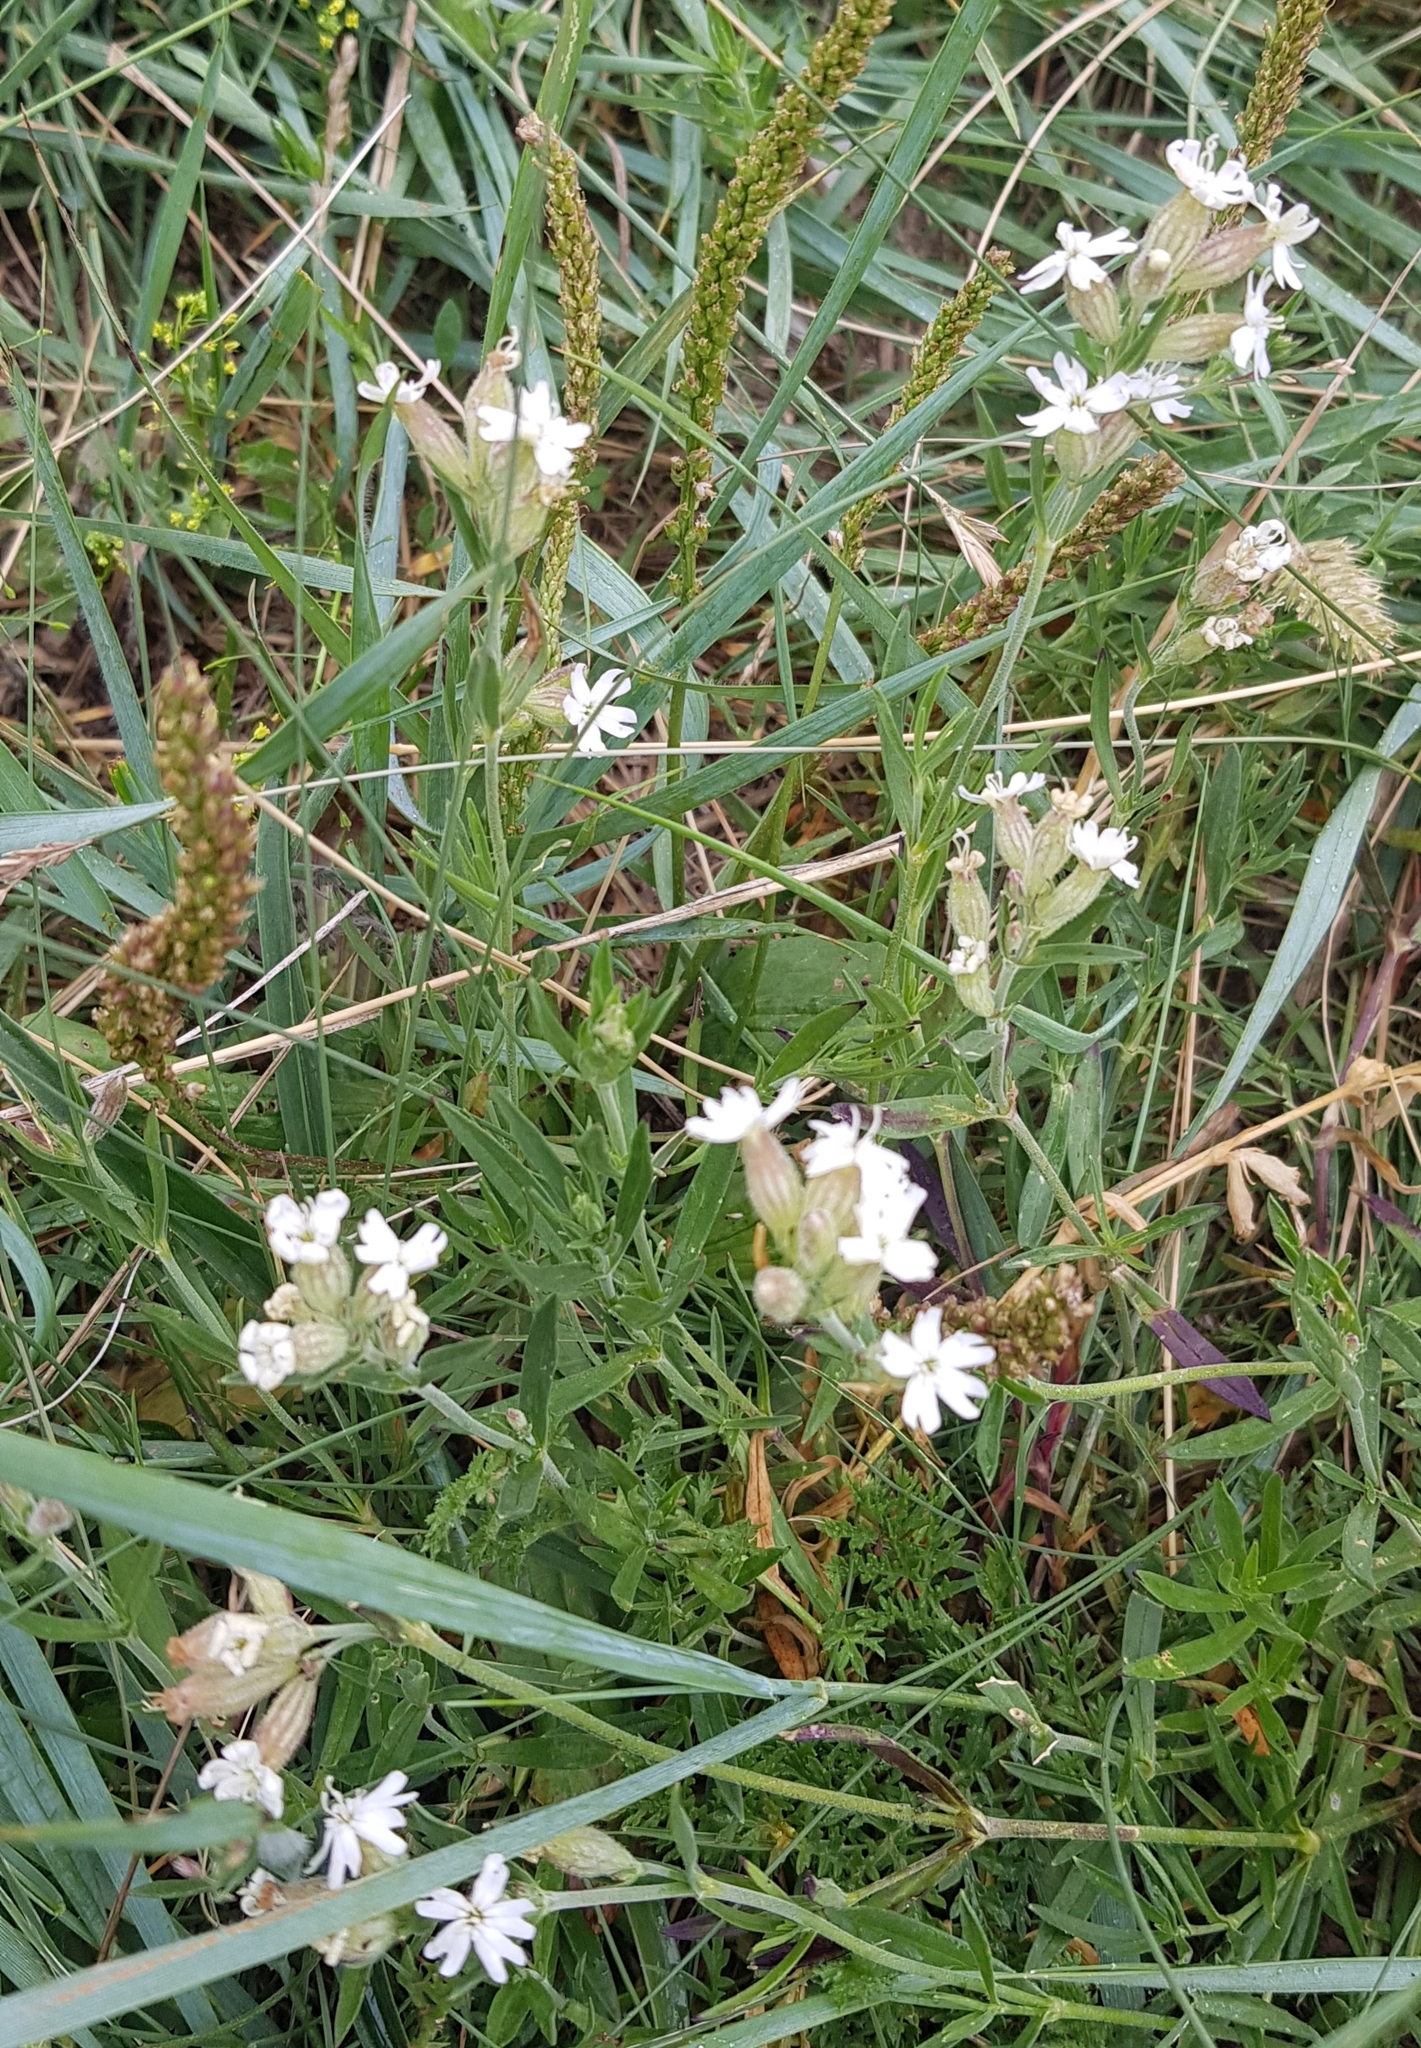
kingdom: Plantae
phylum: Tracheophyta
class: Magnoliopsida
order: Caryophyllales
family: Caryophyllaceae
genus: Silene
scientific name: Silene repens
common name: Pink campion
